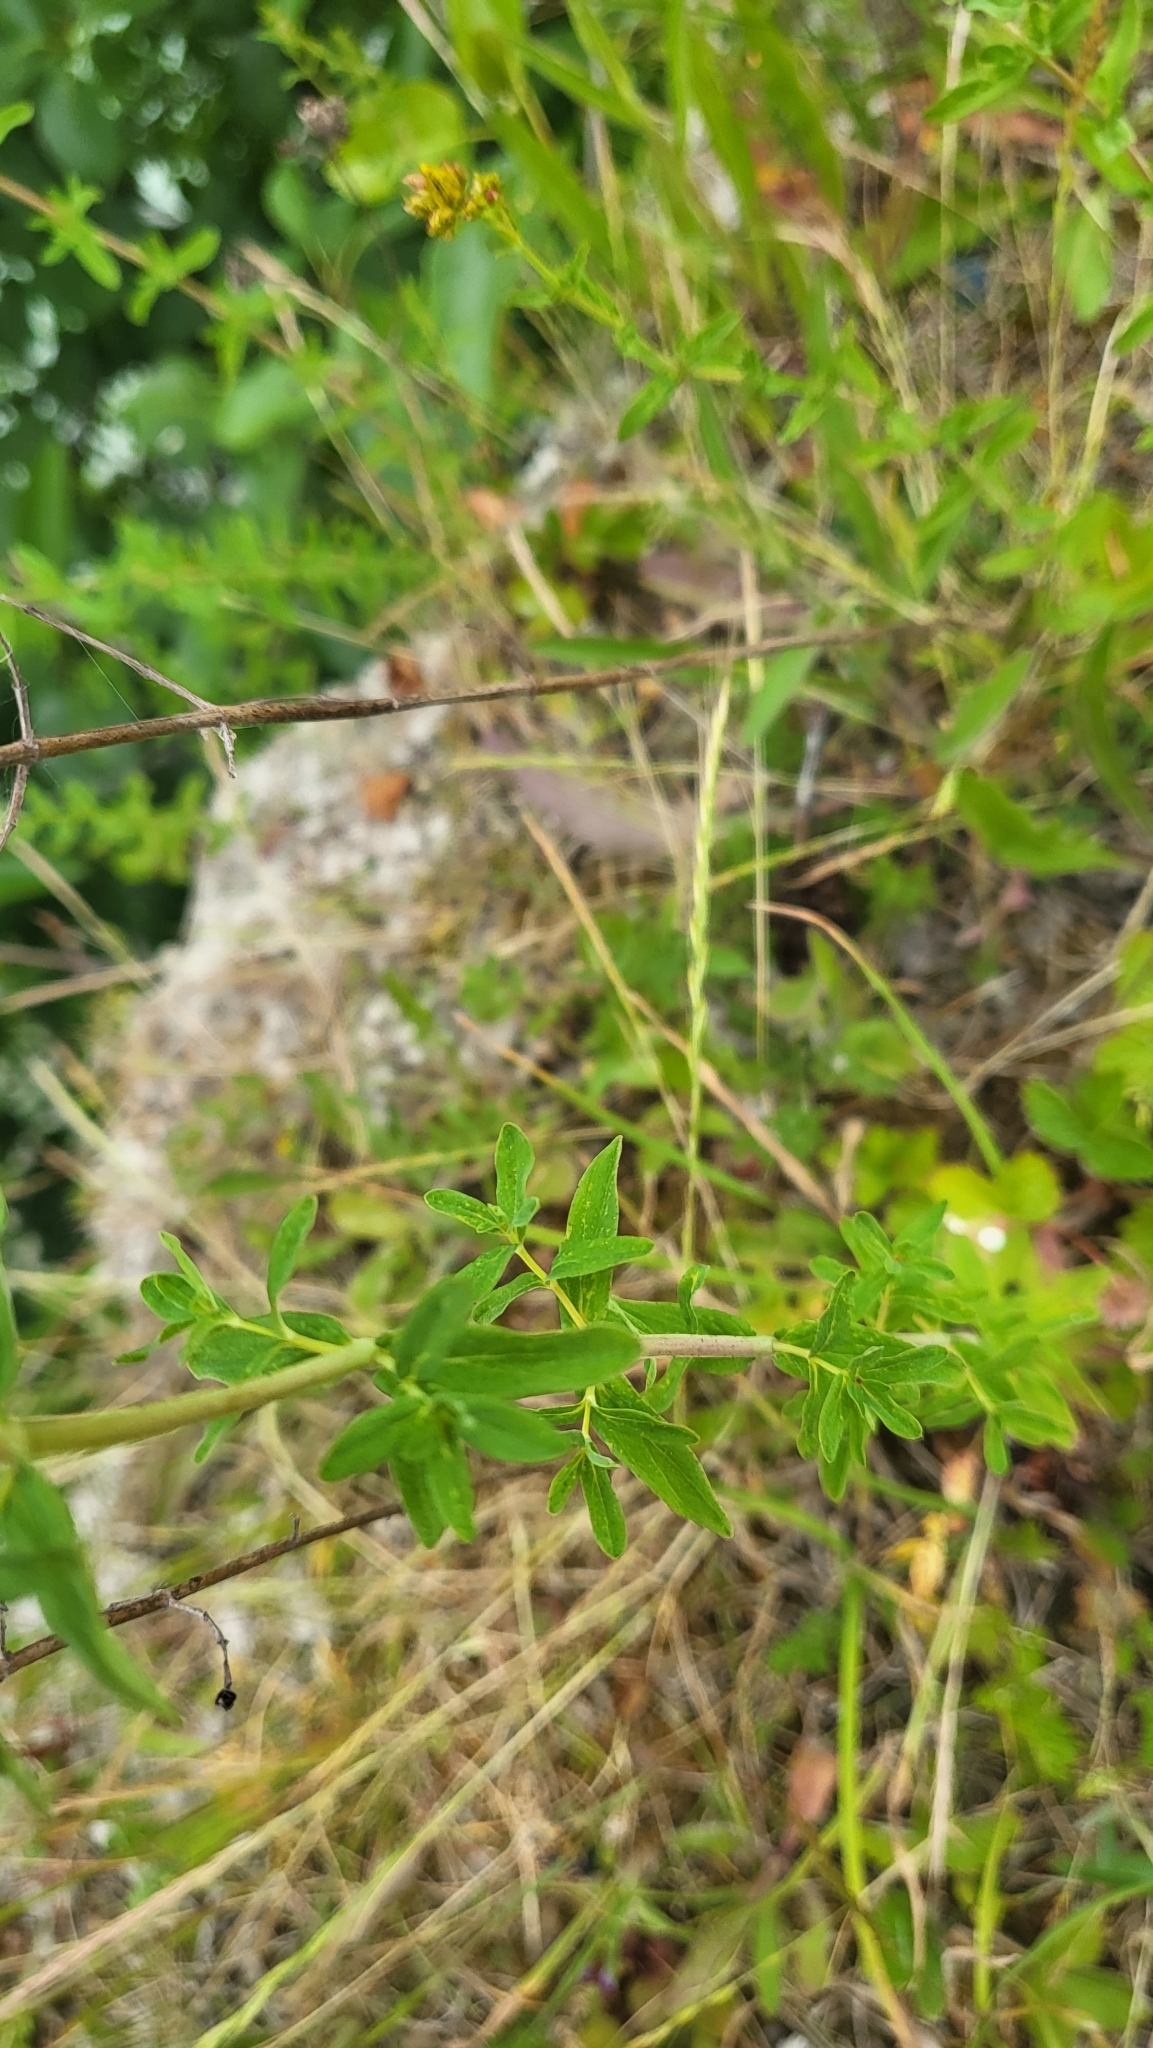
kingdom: Plantae
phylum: Tracheophyta
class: Magnoliopsida
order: Malpighiales
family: Hypericaceae
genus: Hypericum
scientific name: Hypericum perforatum
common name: Common st. johnswort
